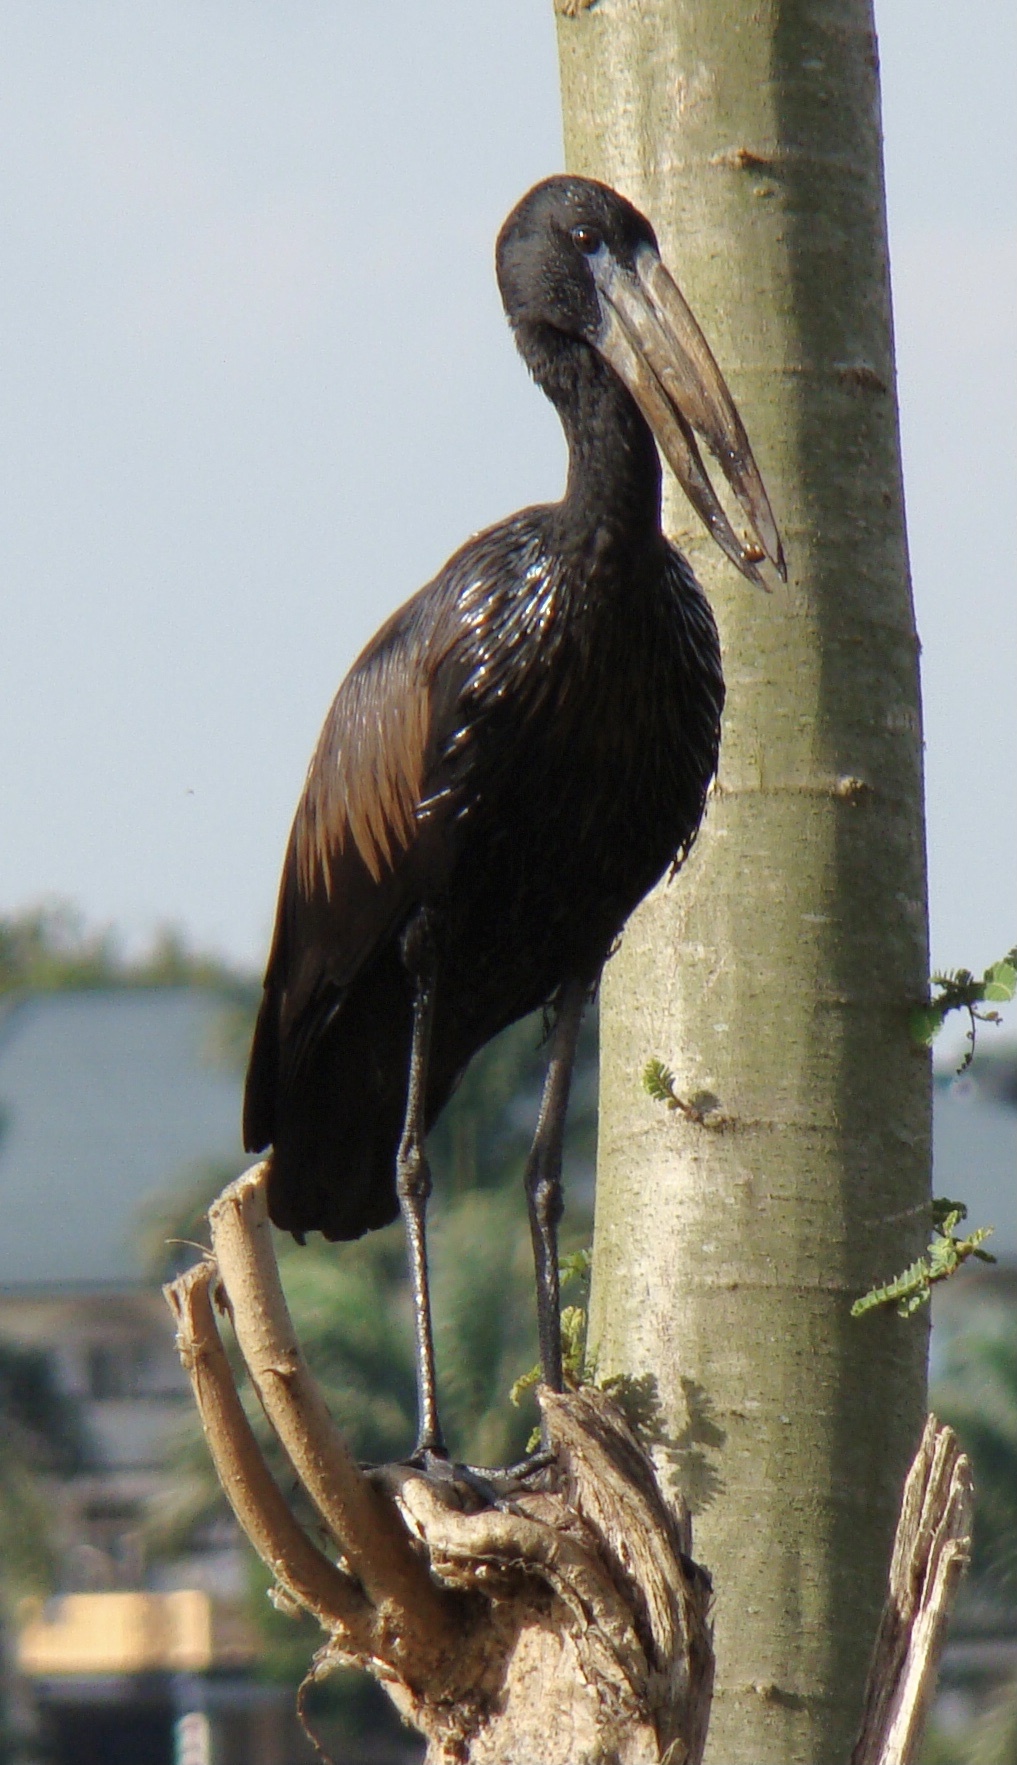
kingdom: Animalia
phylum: Chordata
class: Aves
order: Ciconiiformes
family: Ciconiidae
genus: Anastomus
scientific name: Anastomus lamelligerus
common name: African openbill
